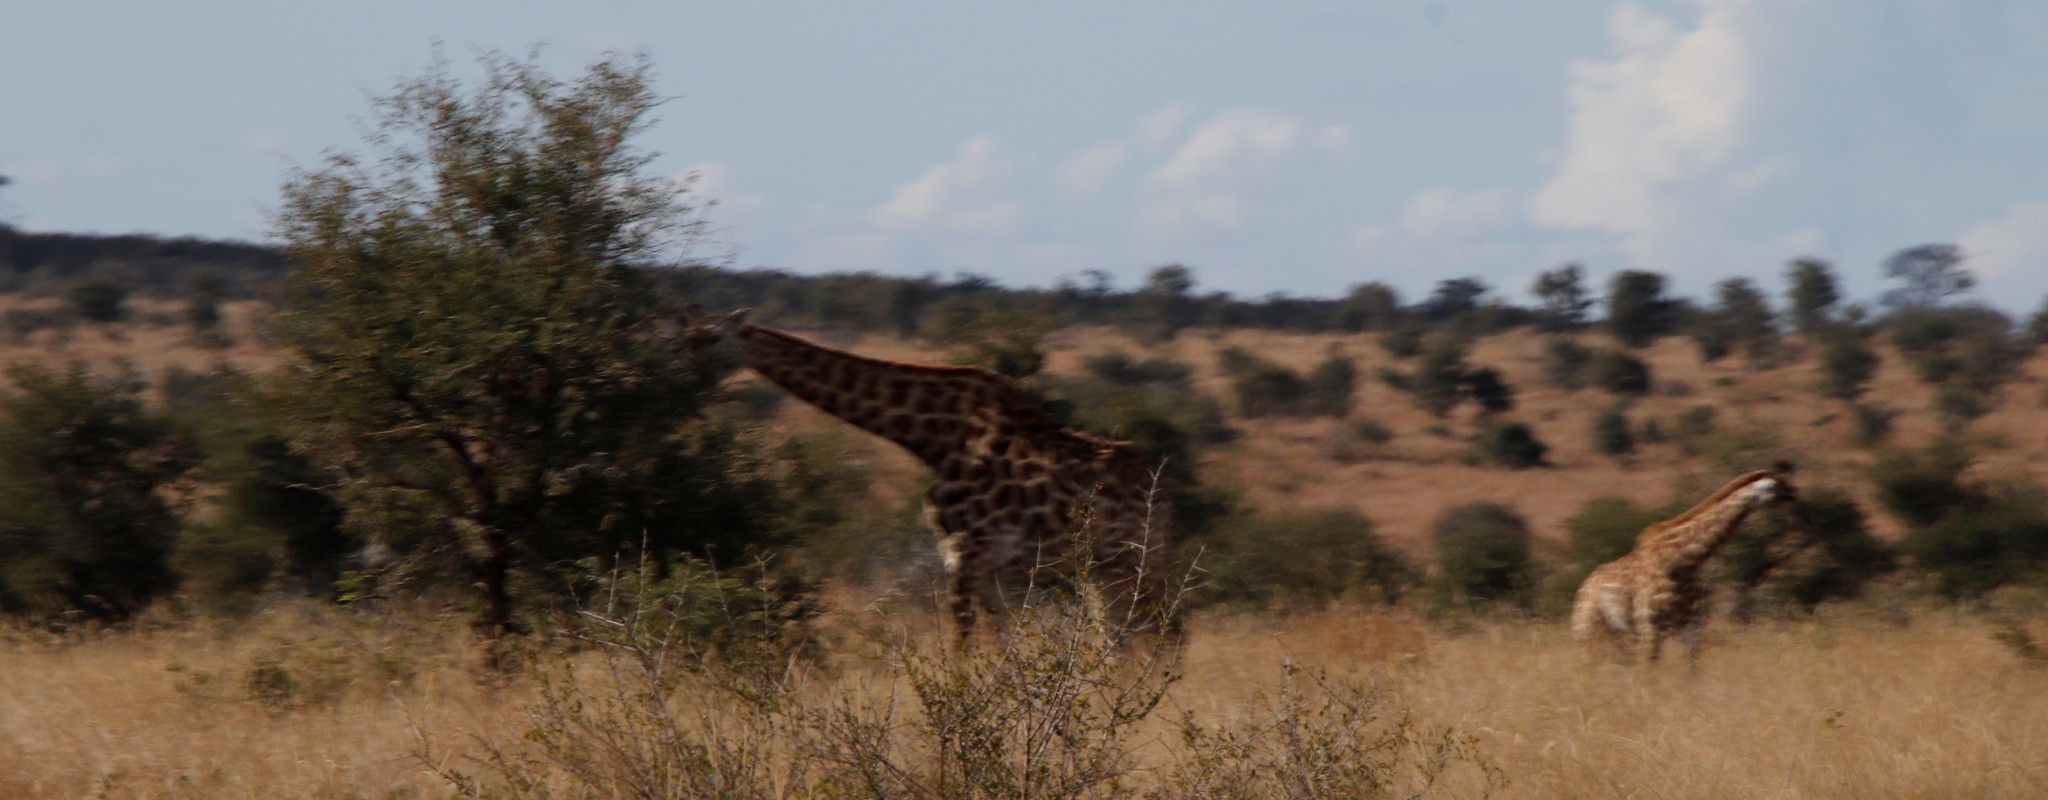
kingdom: Animalia
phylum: Chordata
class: Mammalia
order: Artiodactyla
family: Giraffidae
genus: Giraffa
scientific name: Giraffa giraffa
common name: Southern giraffe
